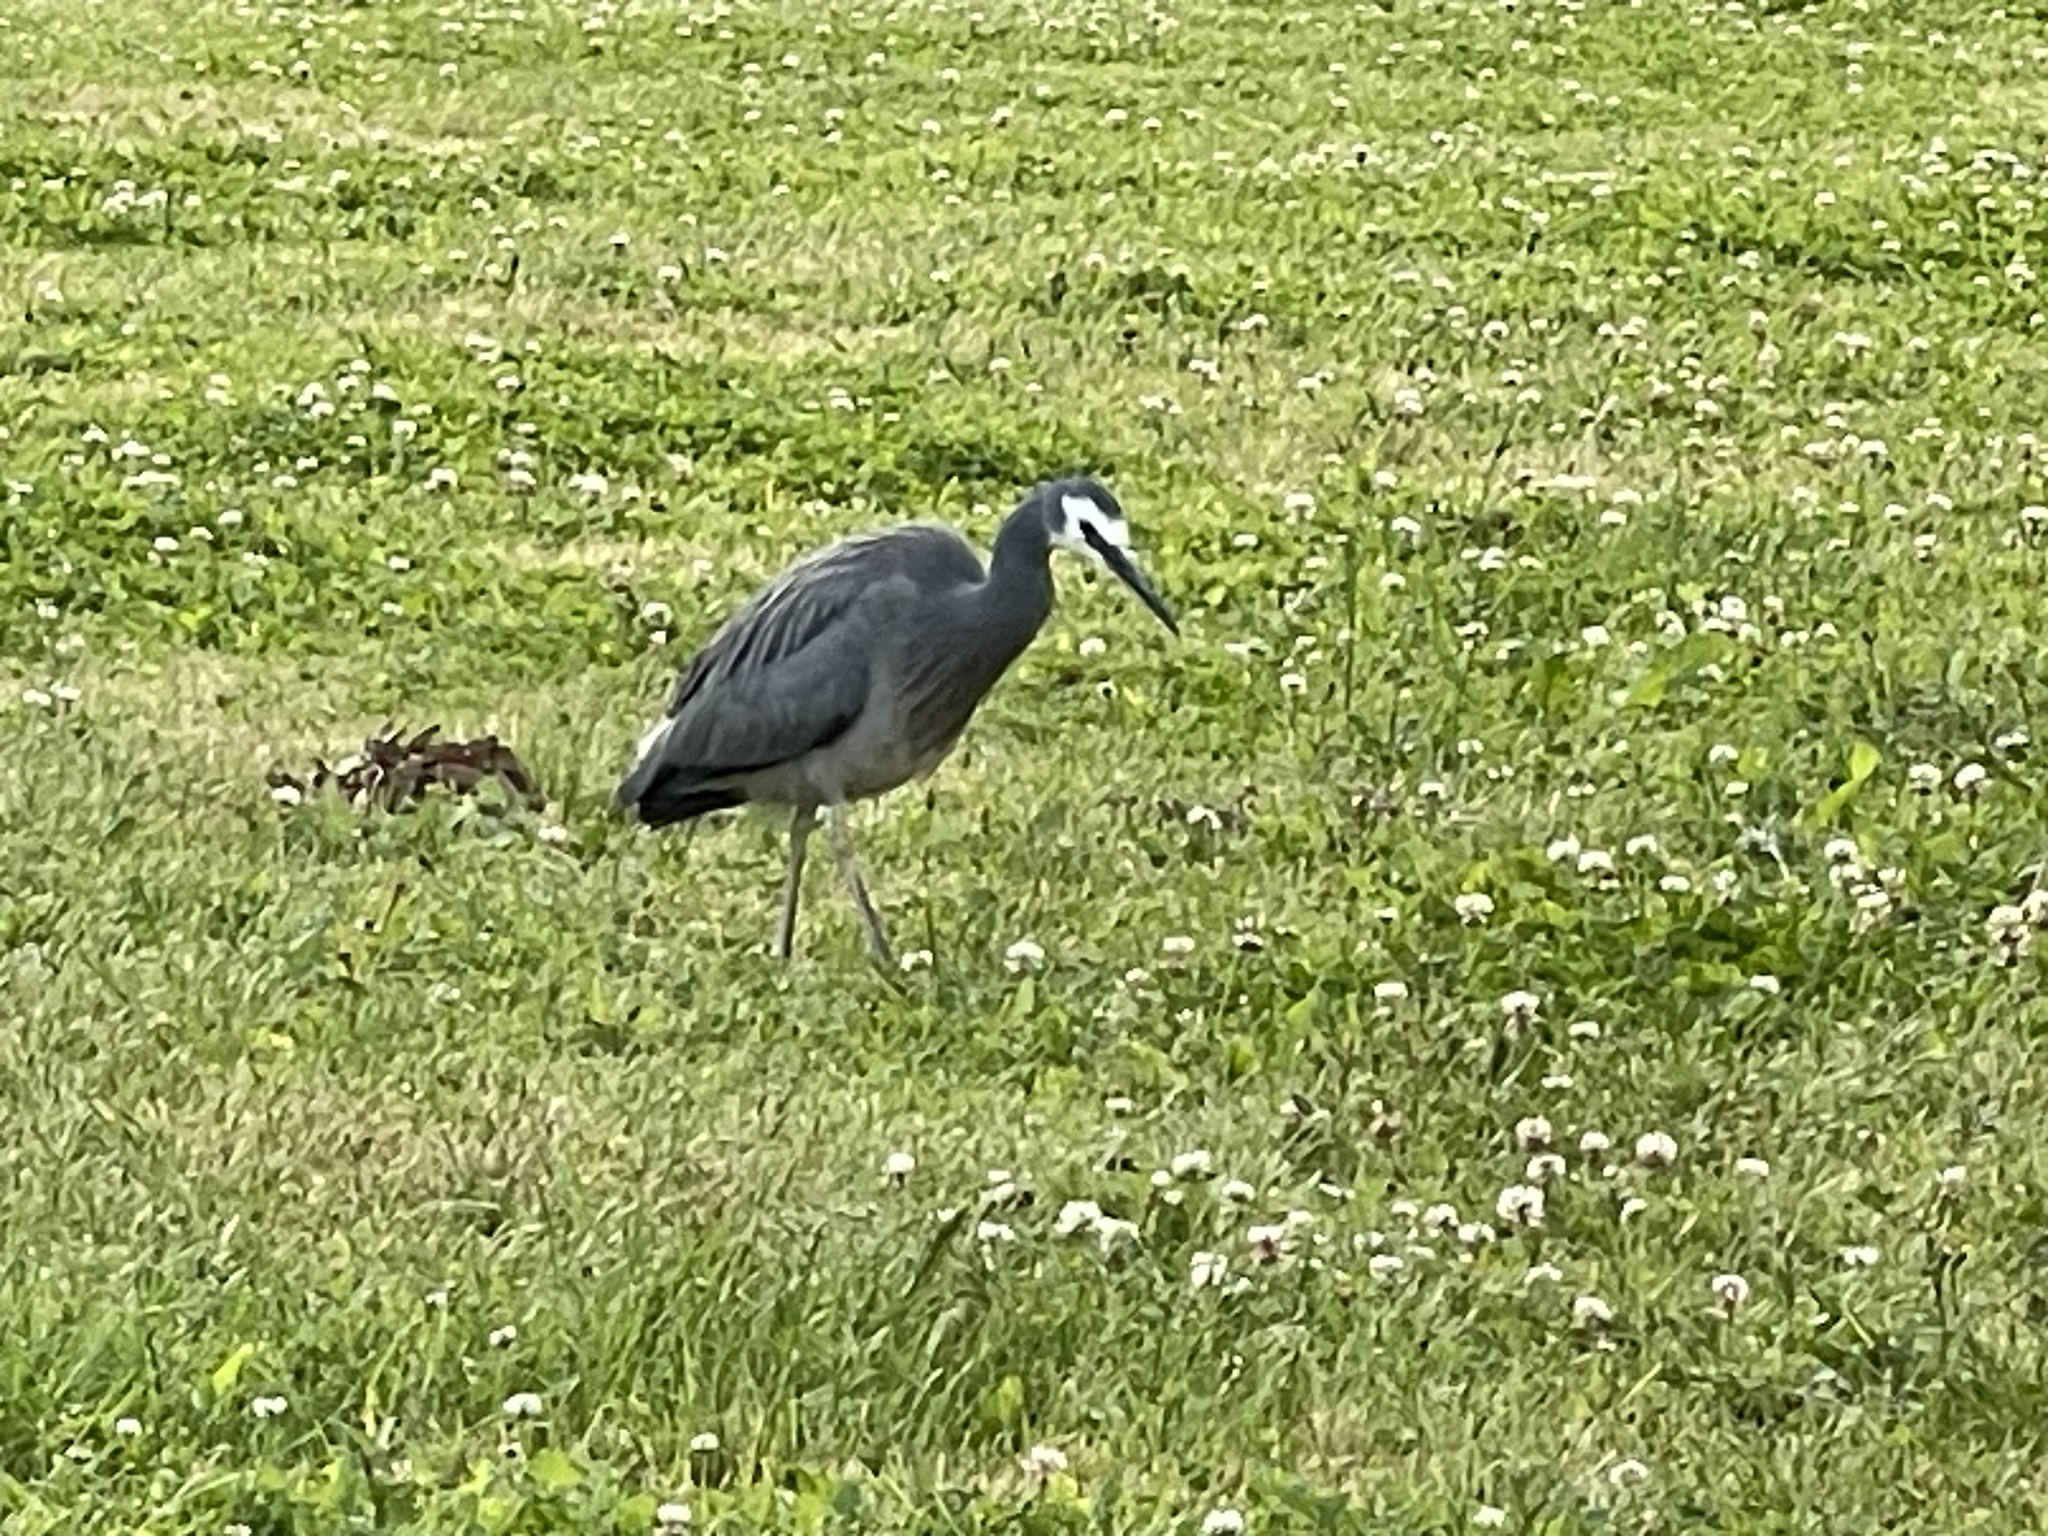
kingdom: Animalia
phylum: Chordata
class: Aves
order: Pelecaniformes
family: Ardeidae
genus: Egretta
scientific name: Egretta novaehollandiae
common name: White-faced heron
